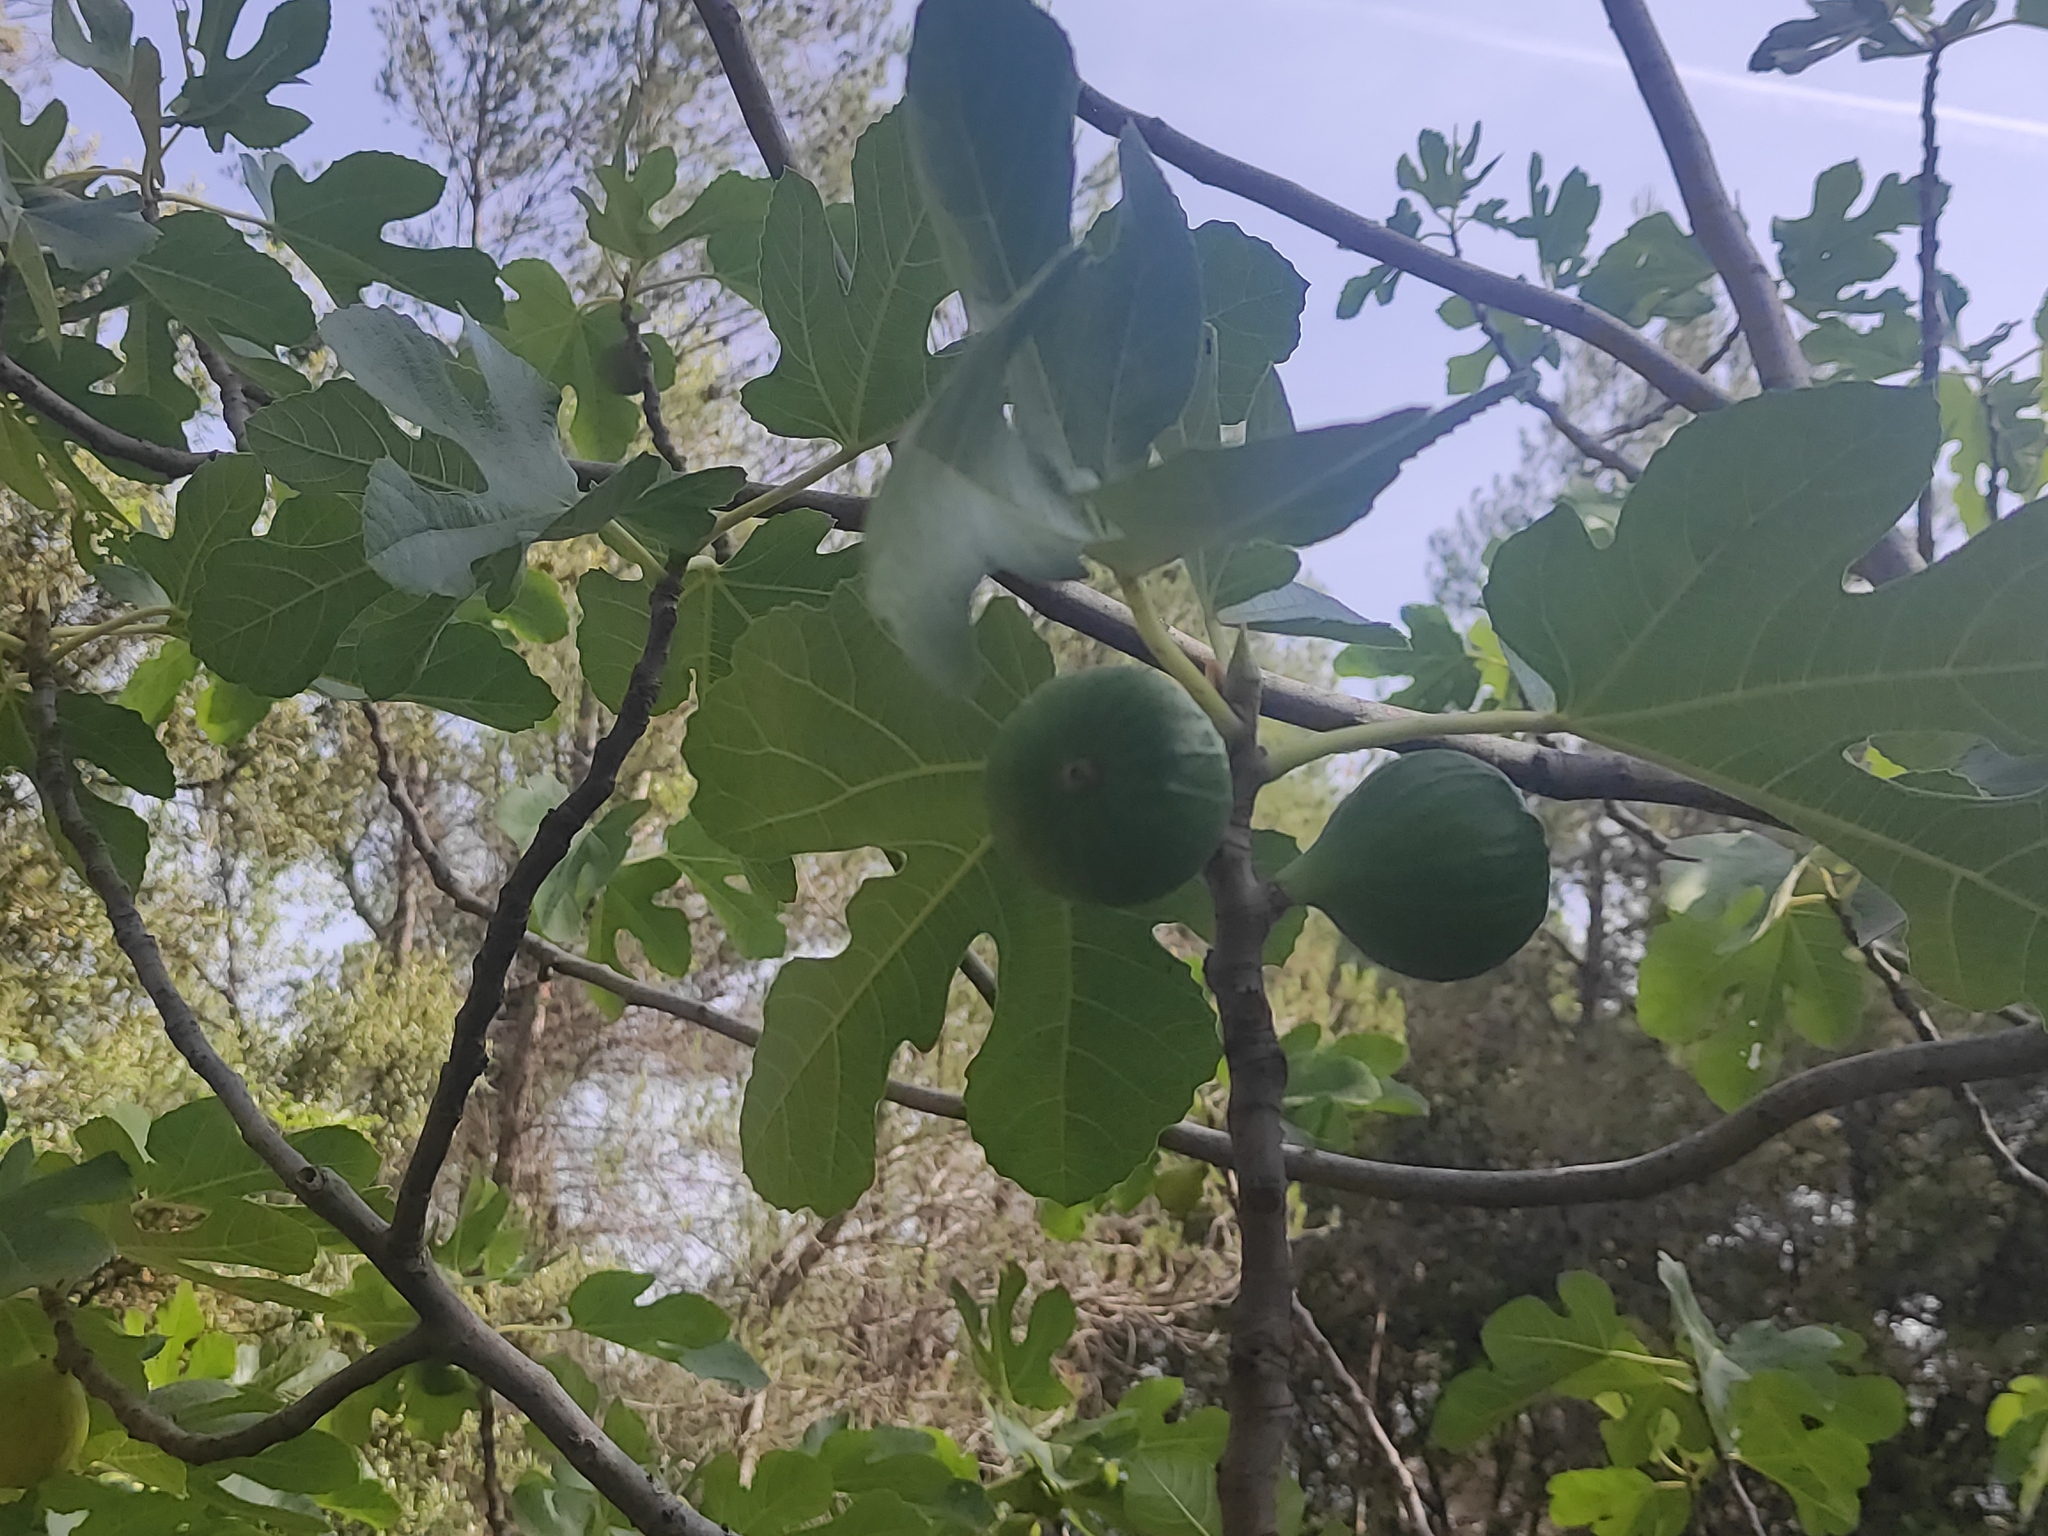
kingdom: Plantae
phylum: Tracheophyta
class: Magnoliopsida
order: Rosales
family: Moraceae
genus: Ficus
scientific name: Ficus carica
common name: Fig
